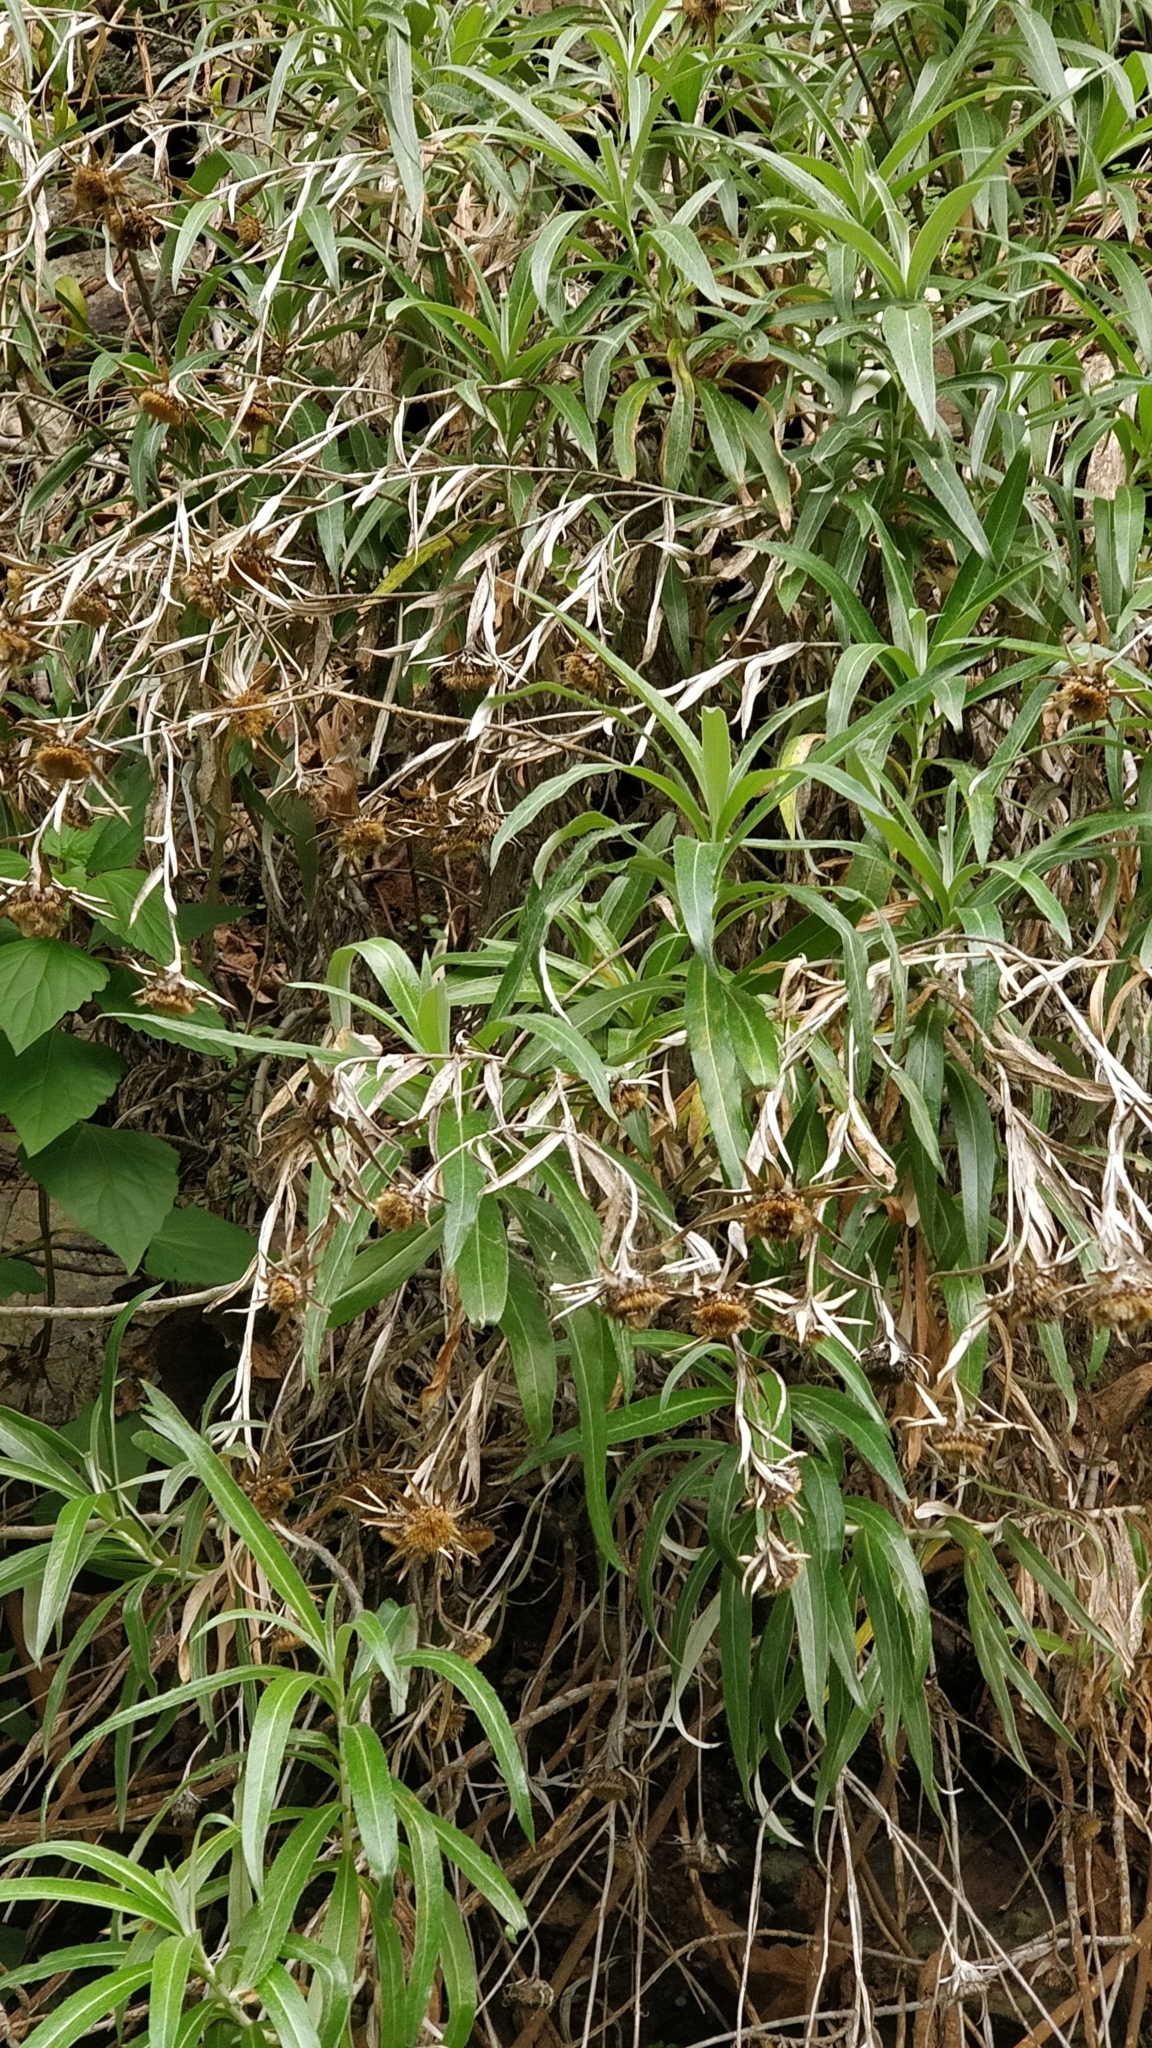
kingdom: Plantae
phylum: Tracheophyta
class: Magnoliopsida
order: Asterales
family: Asteraceae
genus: Carlina
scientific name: Carlina salicifolia
